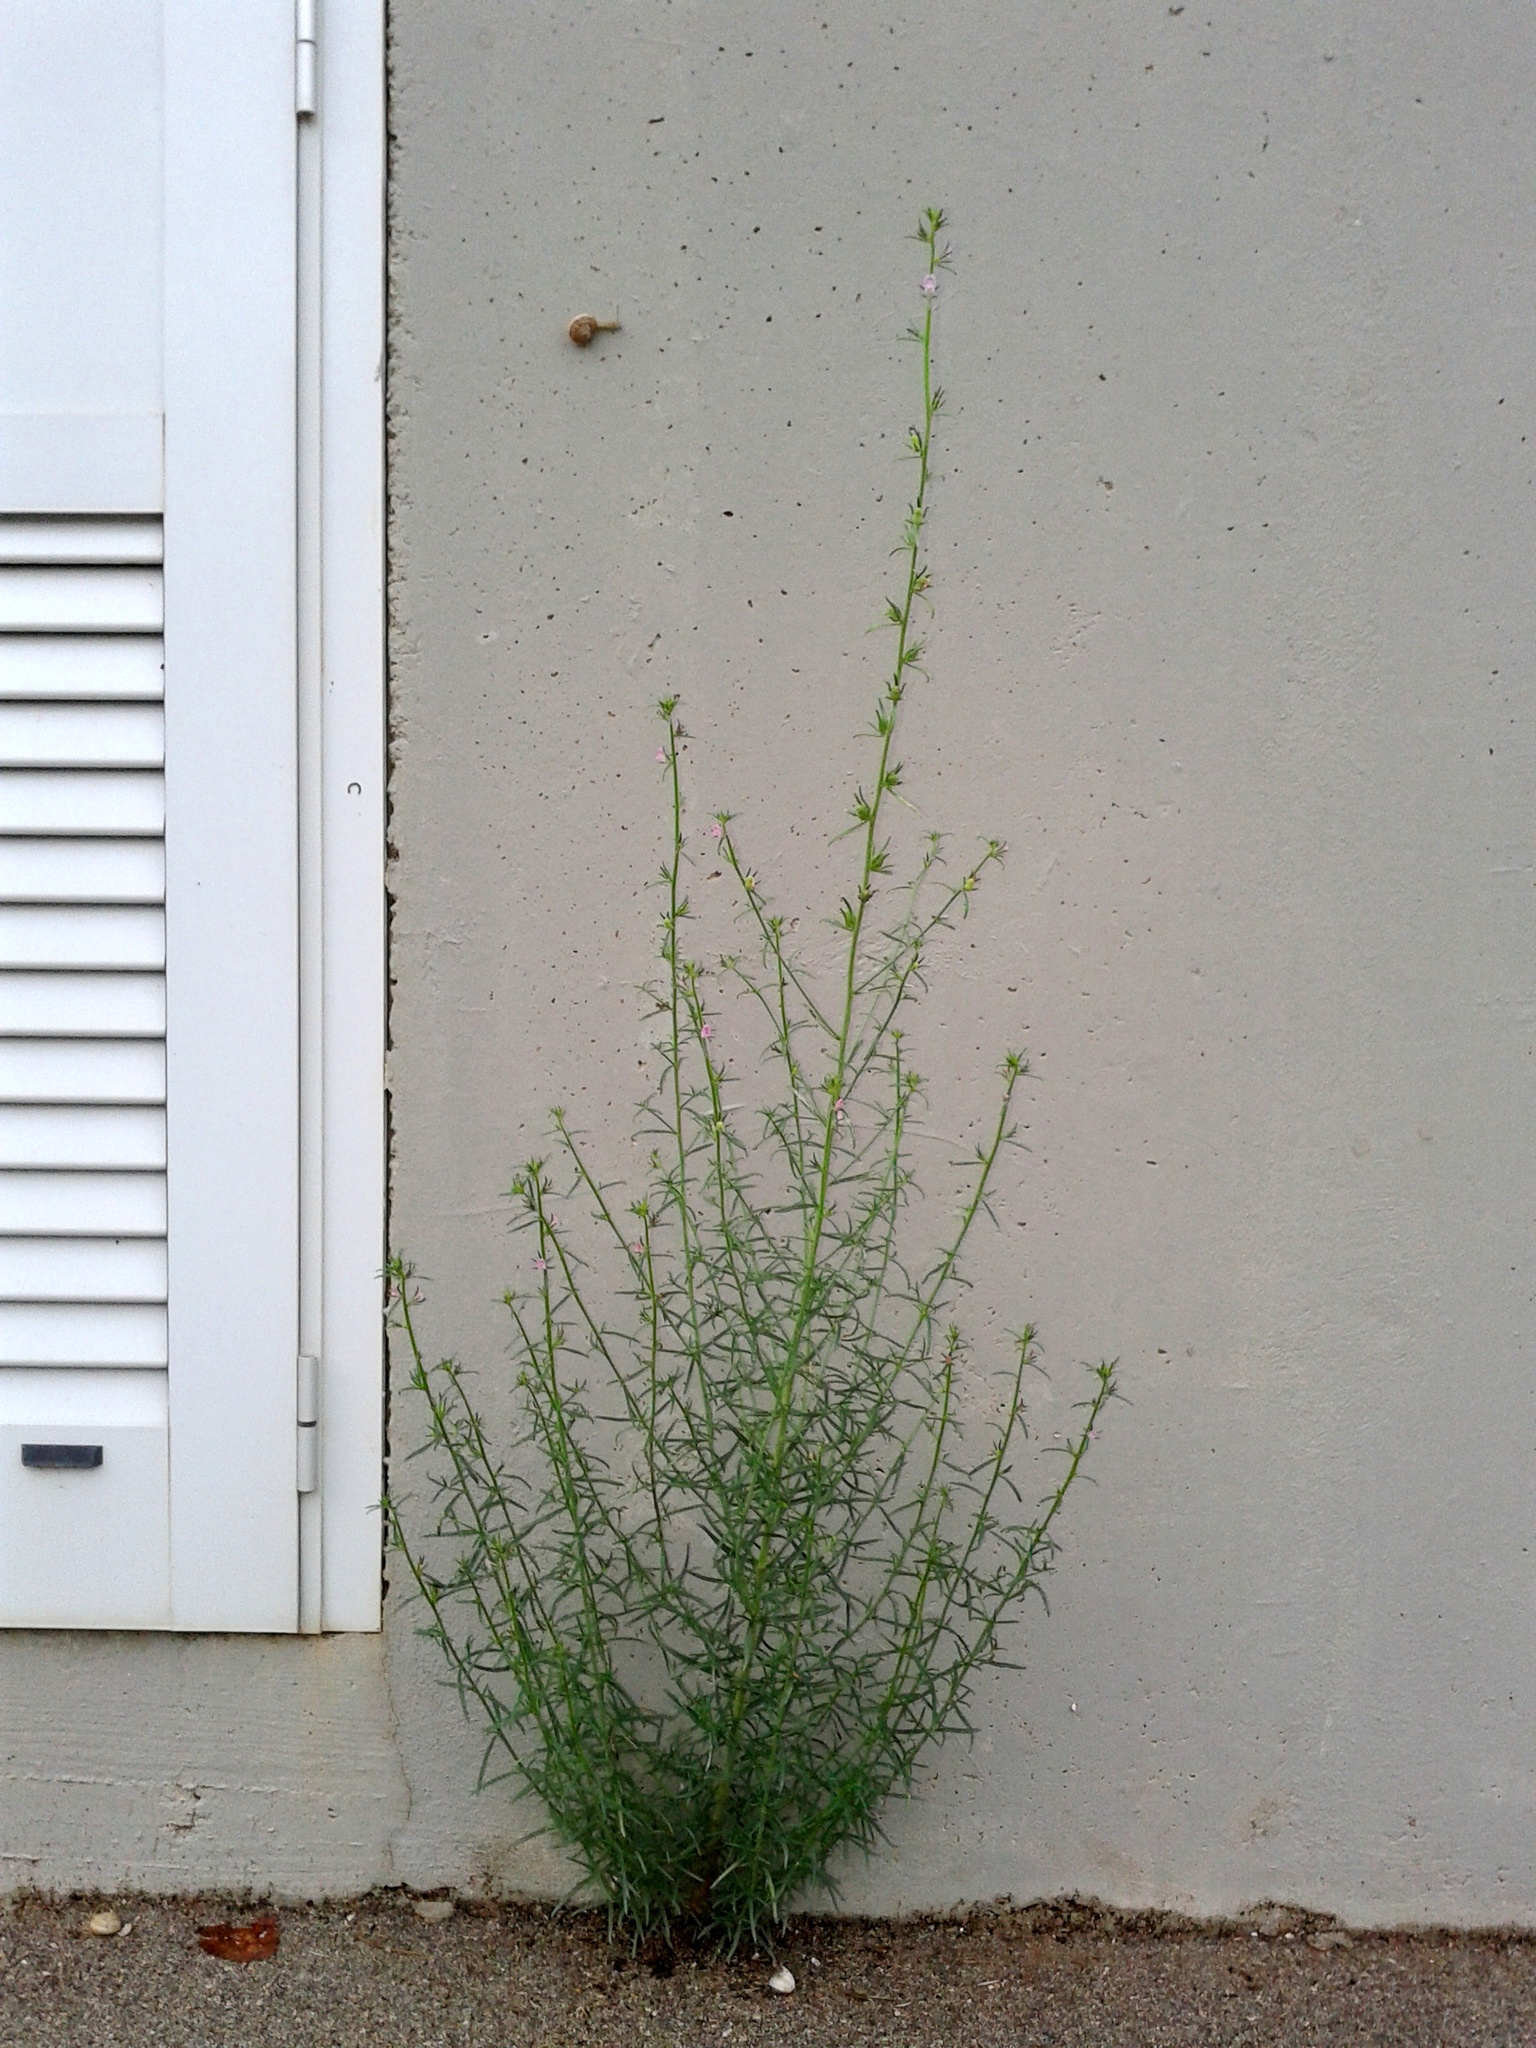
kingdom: Plantae
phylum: Tracheophyta
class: Magnoliopsida
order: Lamiales
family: Plantaginaceae
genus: Misopates
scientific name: Misopates orontium
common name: Weasel's-snout
